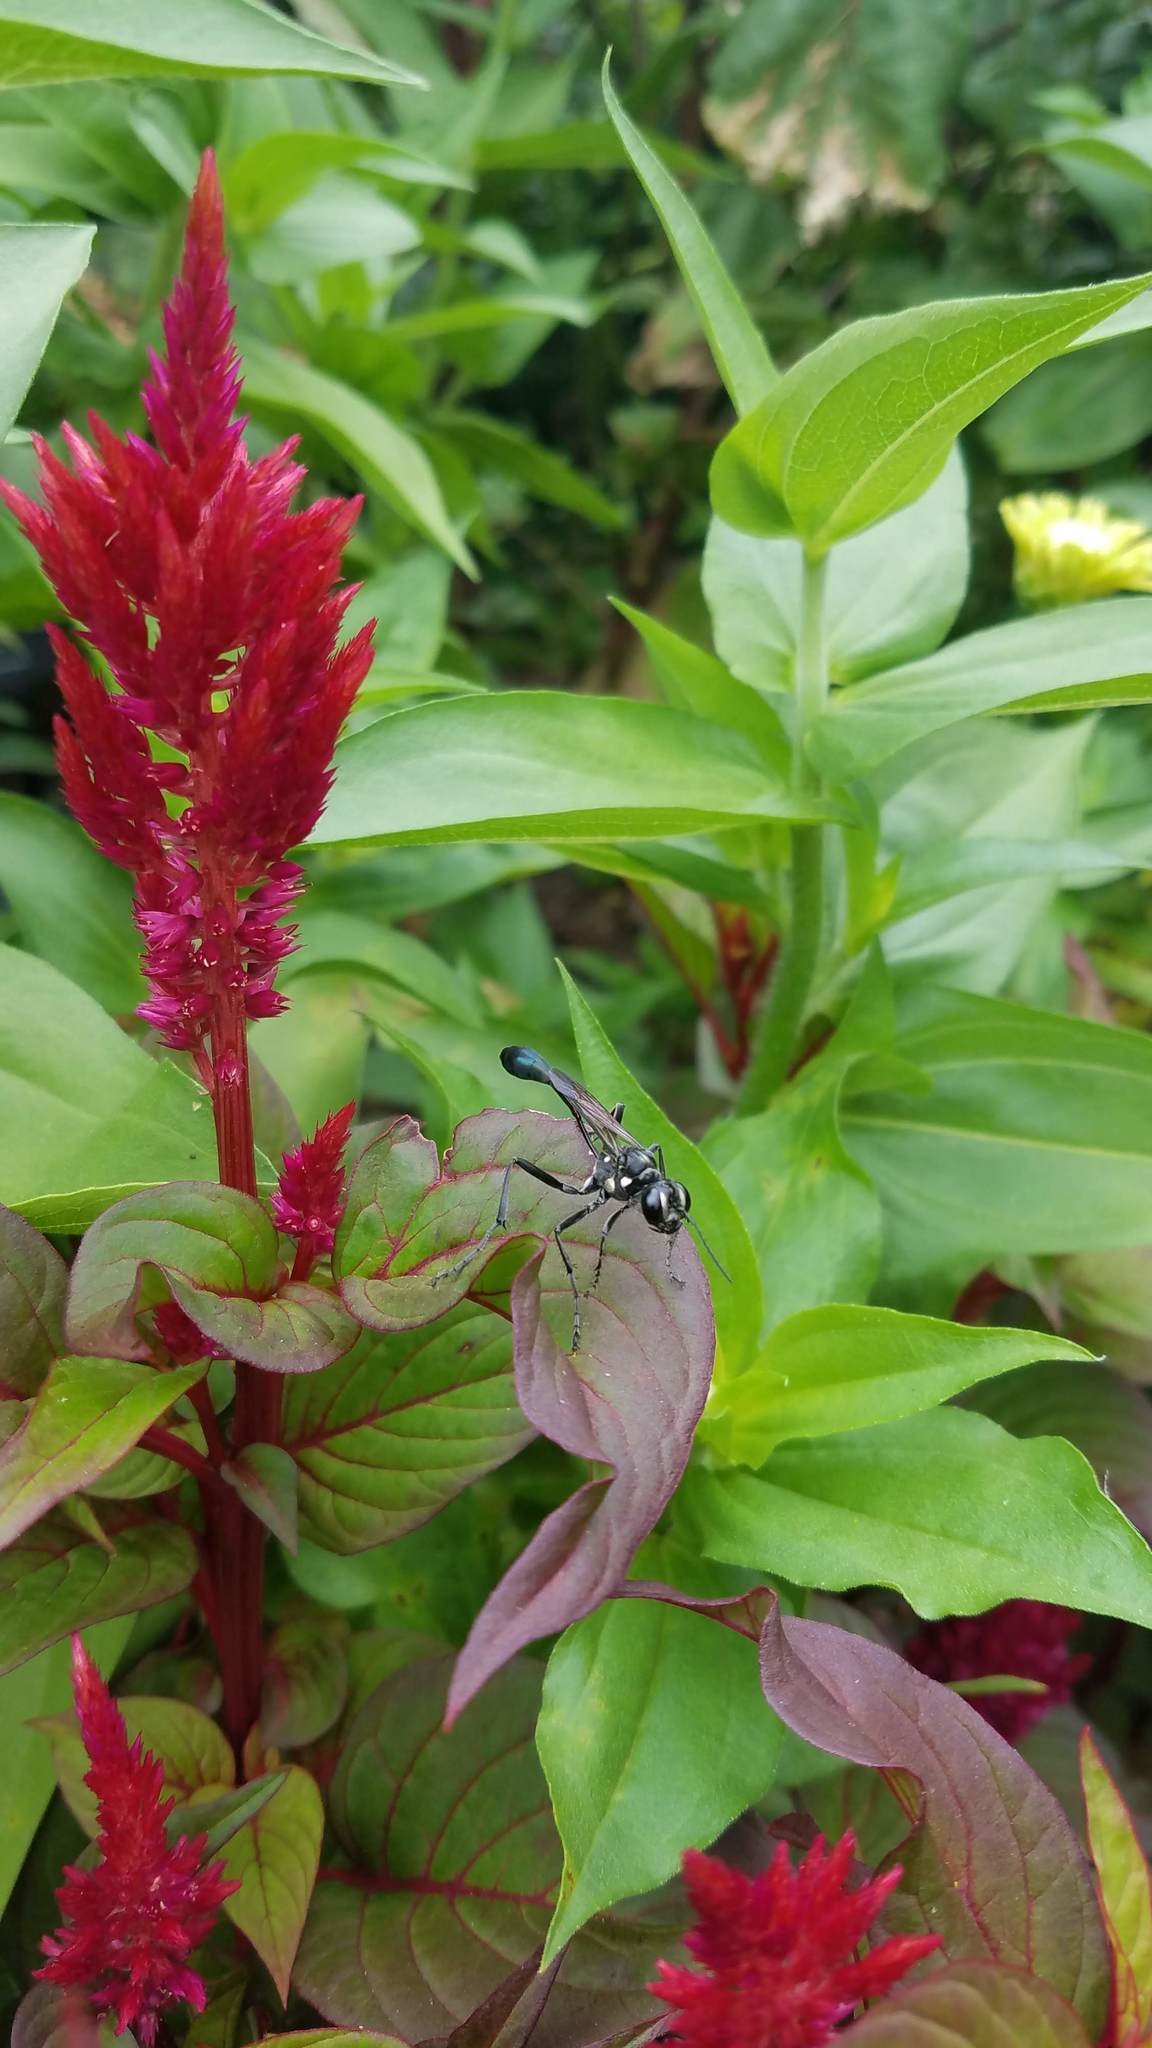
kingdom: Animalia
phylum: Arthropoda
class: Insecta
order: Hymenoptera
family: Sphecidae
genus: Eremnophila
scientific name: Eremnophila aureonotata
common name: Gold-marked thread-waisted wasp
